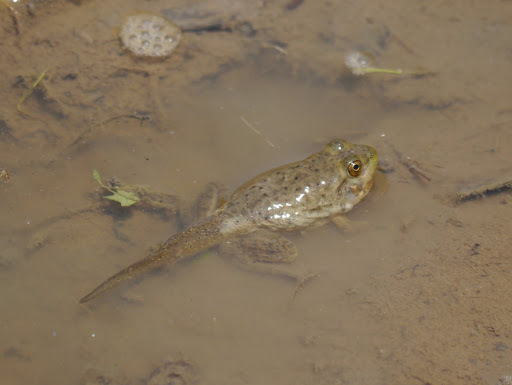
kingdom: Animalia
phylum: Chordata
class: Amphibia
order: Anura
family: Ranidae
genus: Lithobates
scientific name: Lithobates catesbeianus
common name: American bullfrog
